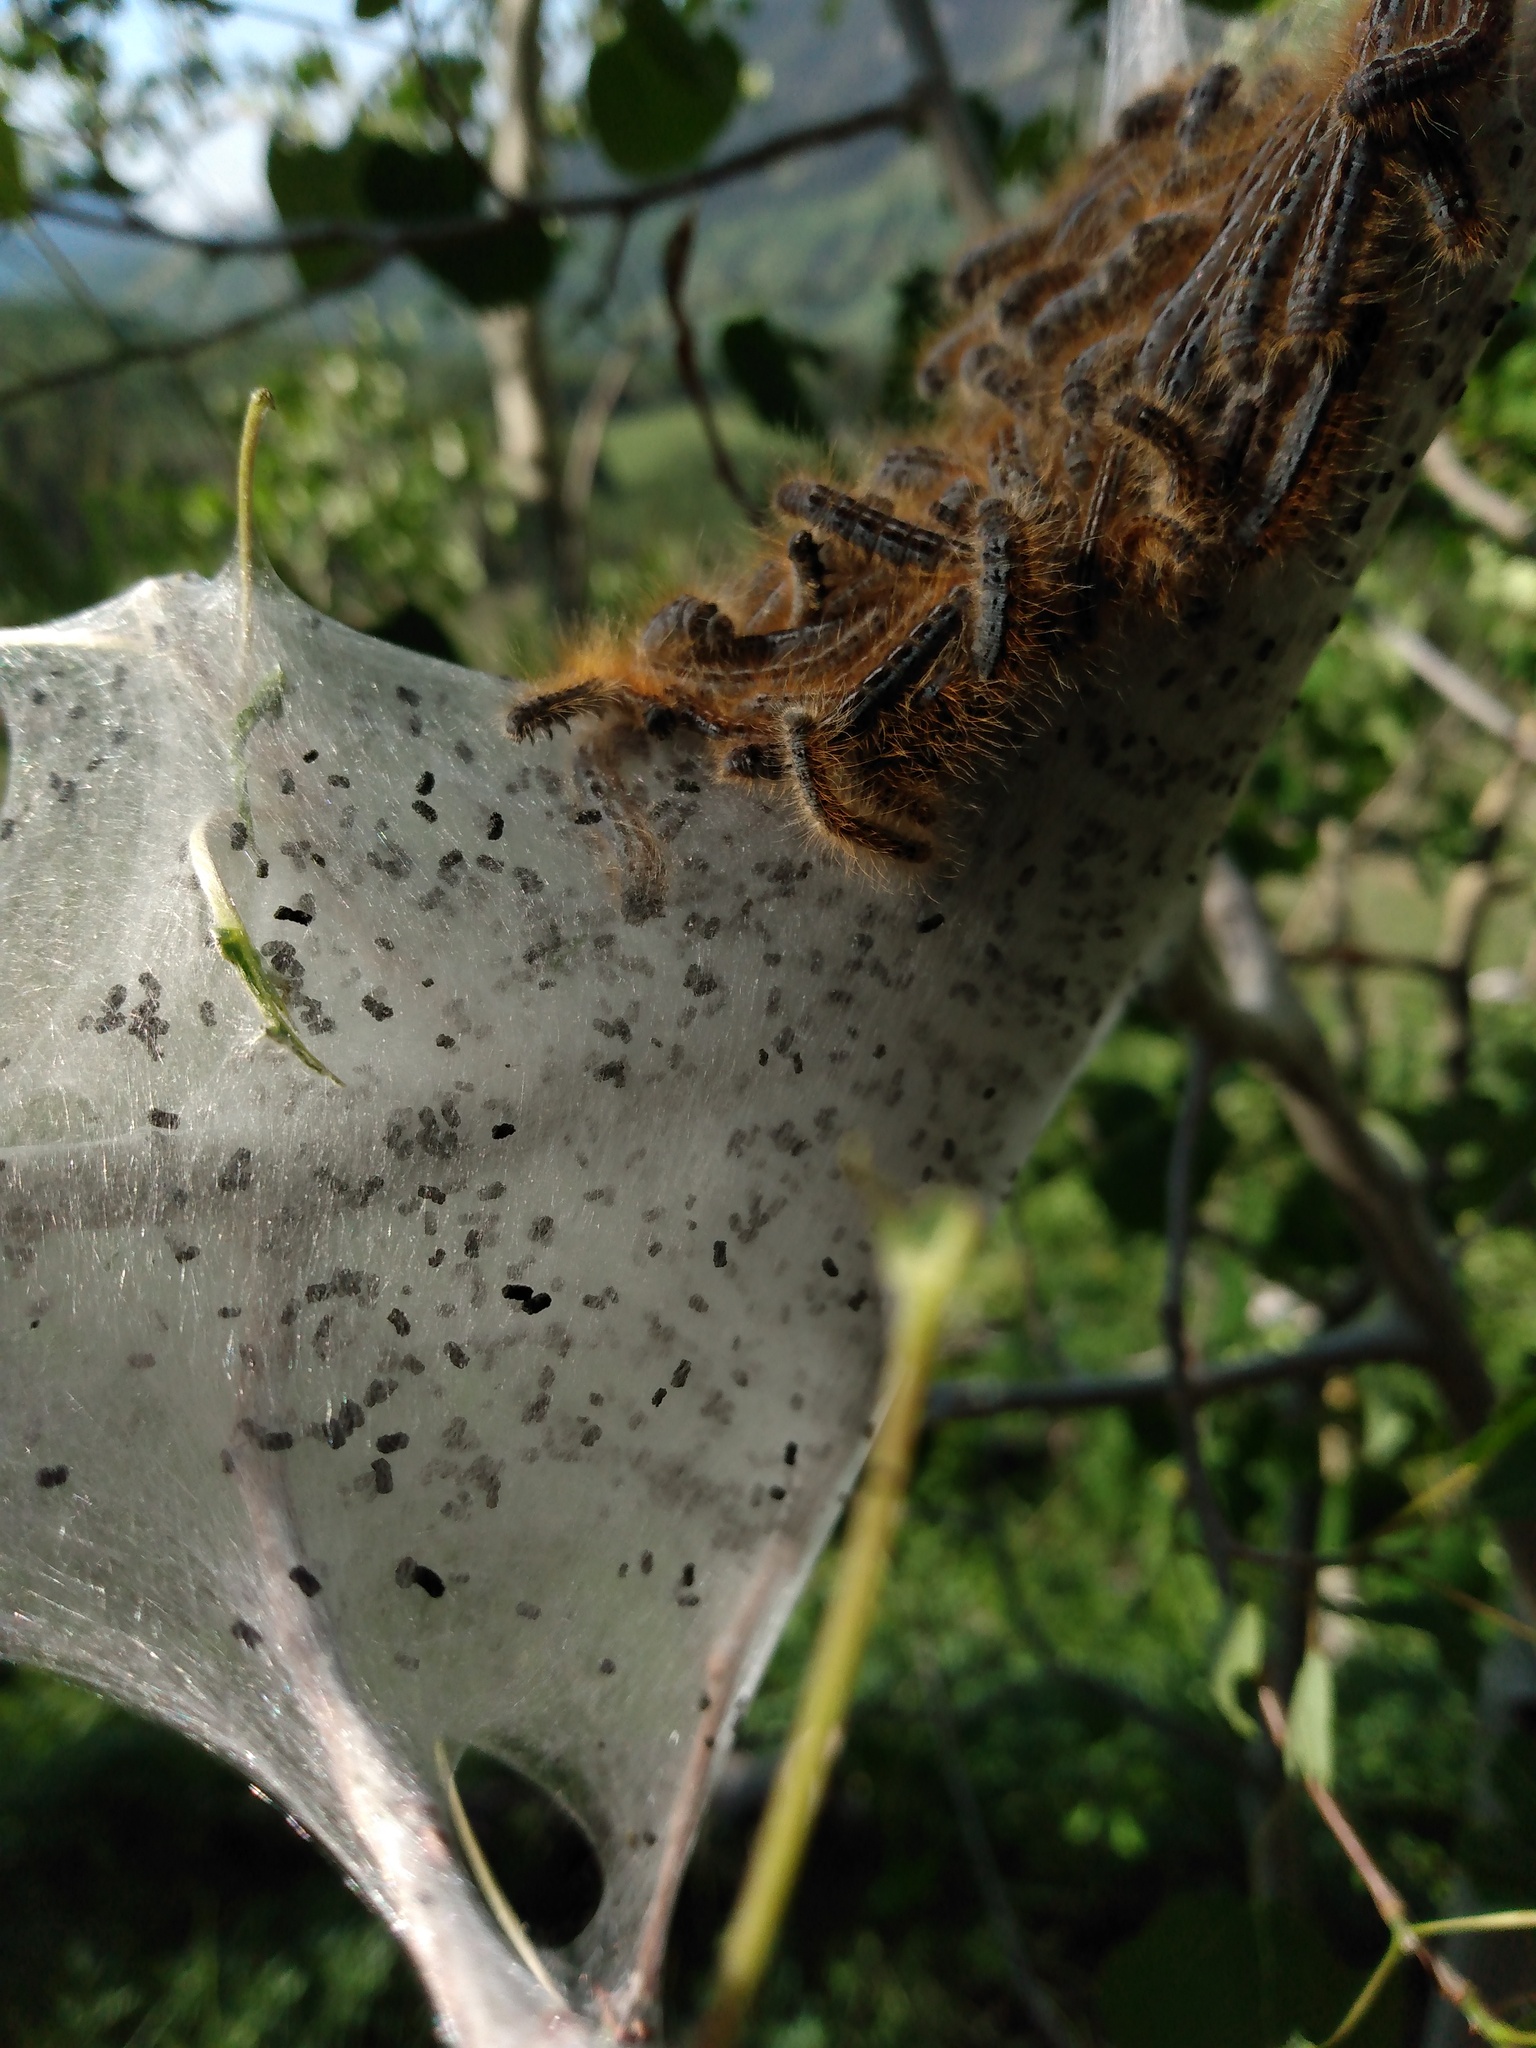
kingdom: Animalia
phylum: Arthropoda
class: Insecta
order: Lepidoptera
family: Lasiocampidae
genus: Malacosoma
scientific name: Malacosoma californica
